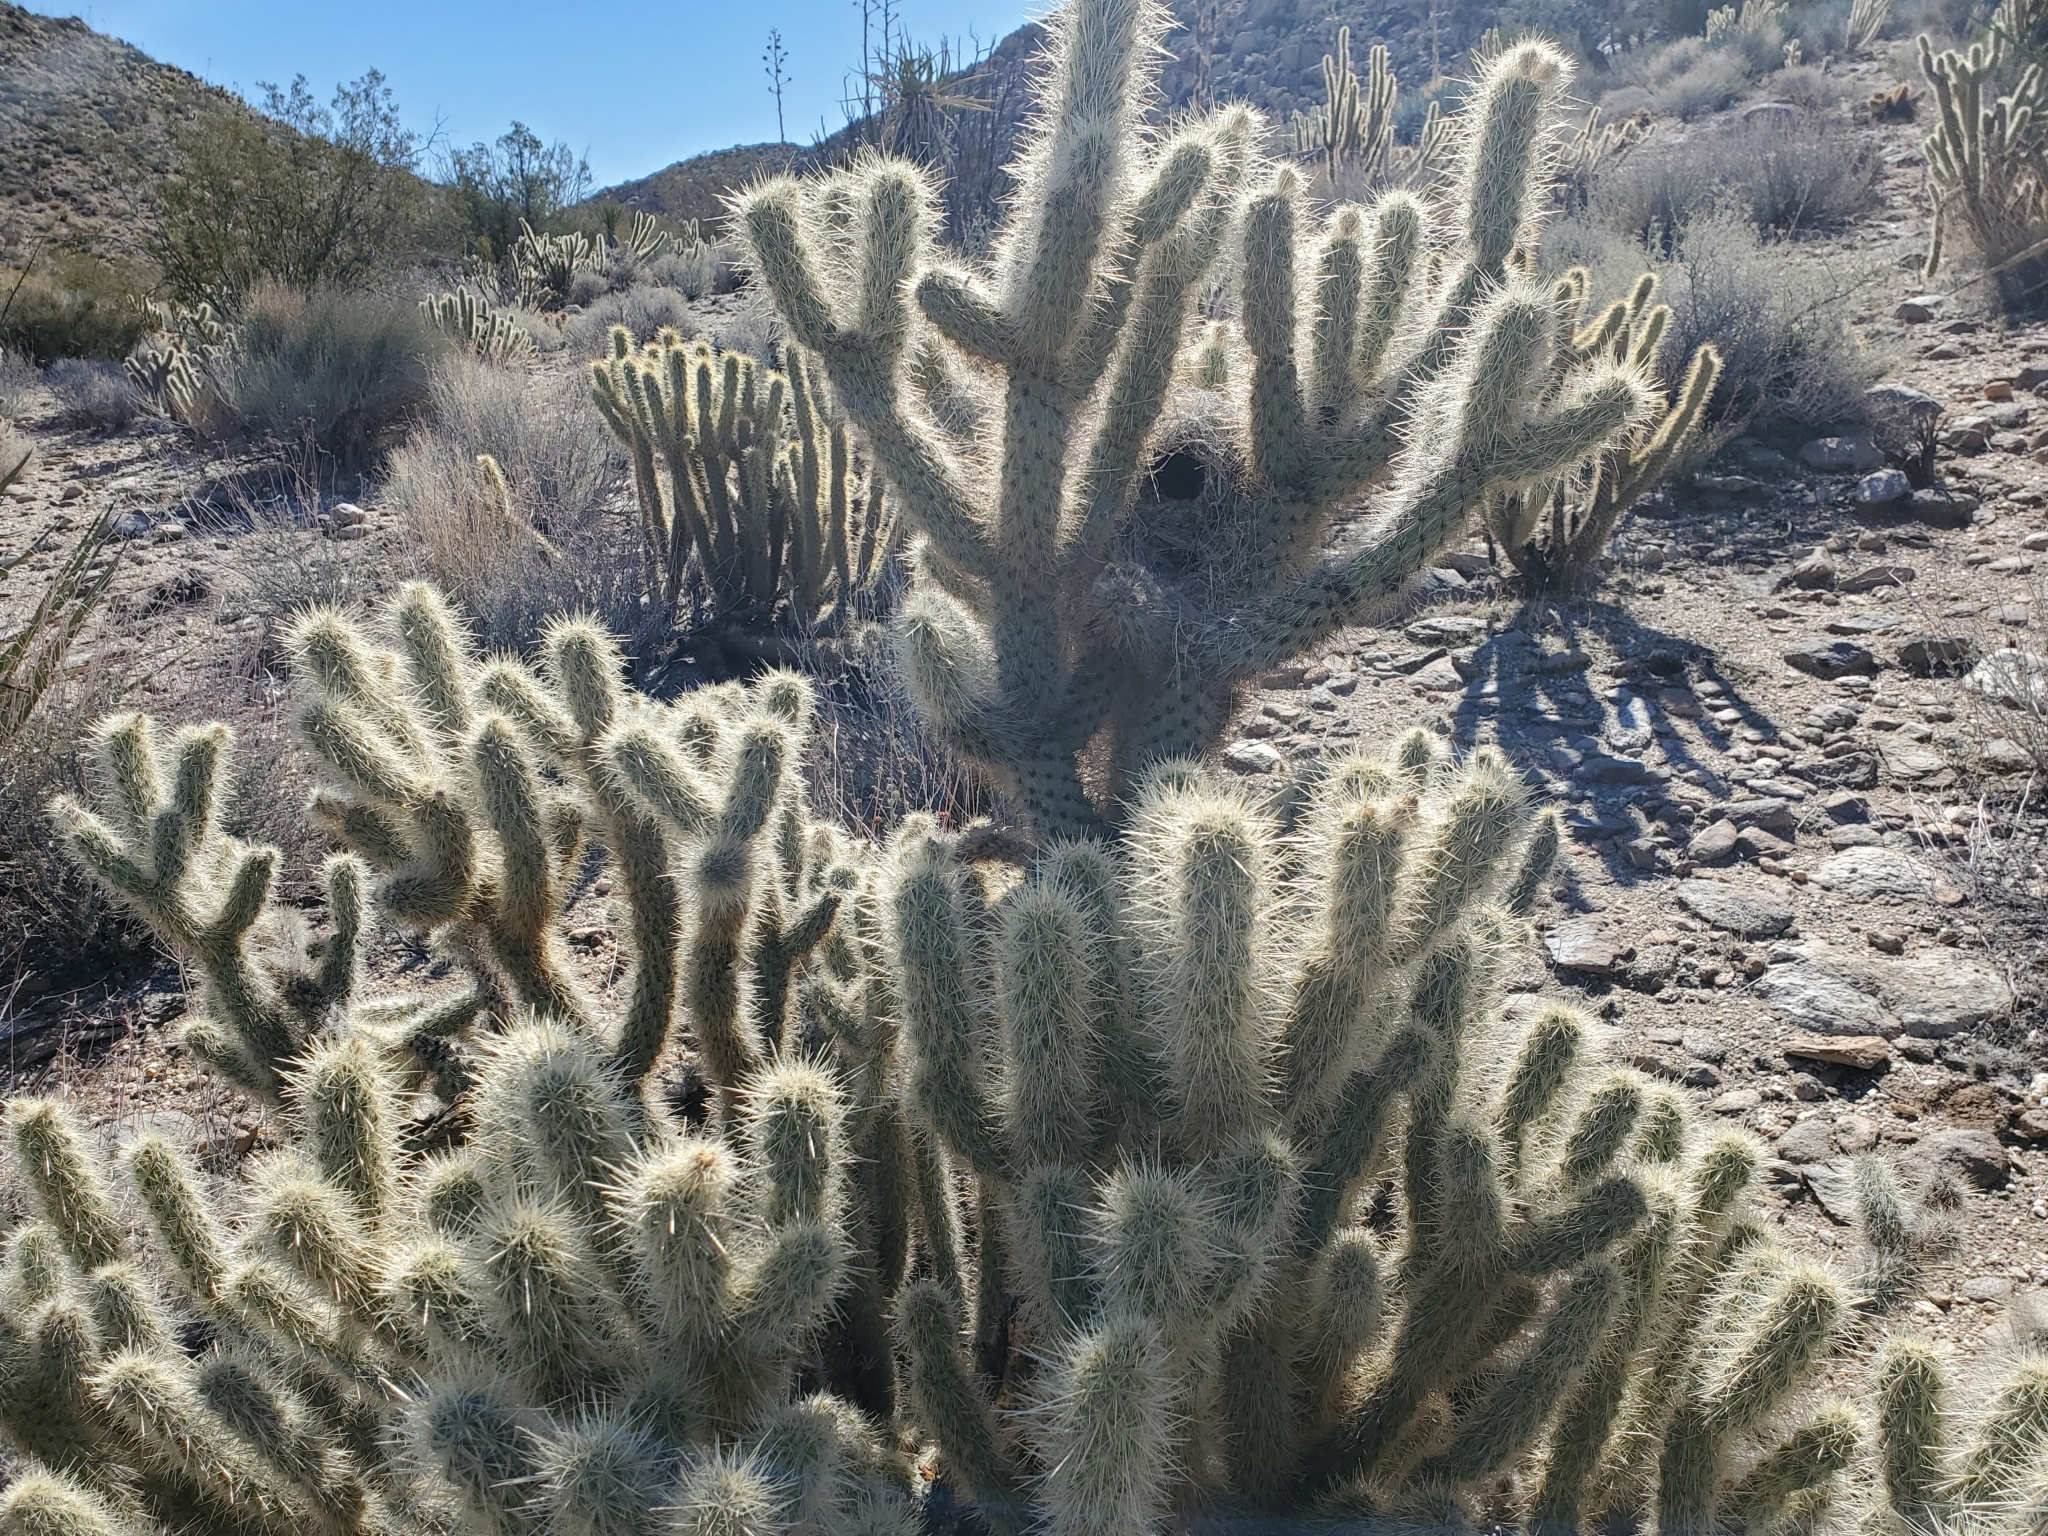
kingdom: Plantae
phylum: Tracheophyta
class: Magnoliopsida
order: Caryophyllales
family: Cactaceae
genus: Cylindropuntia
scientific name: Cylindropuntia ganderi
